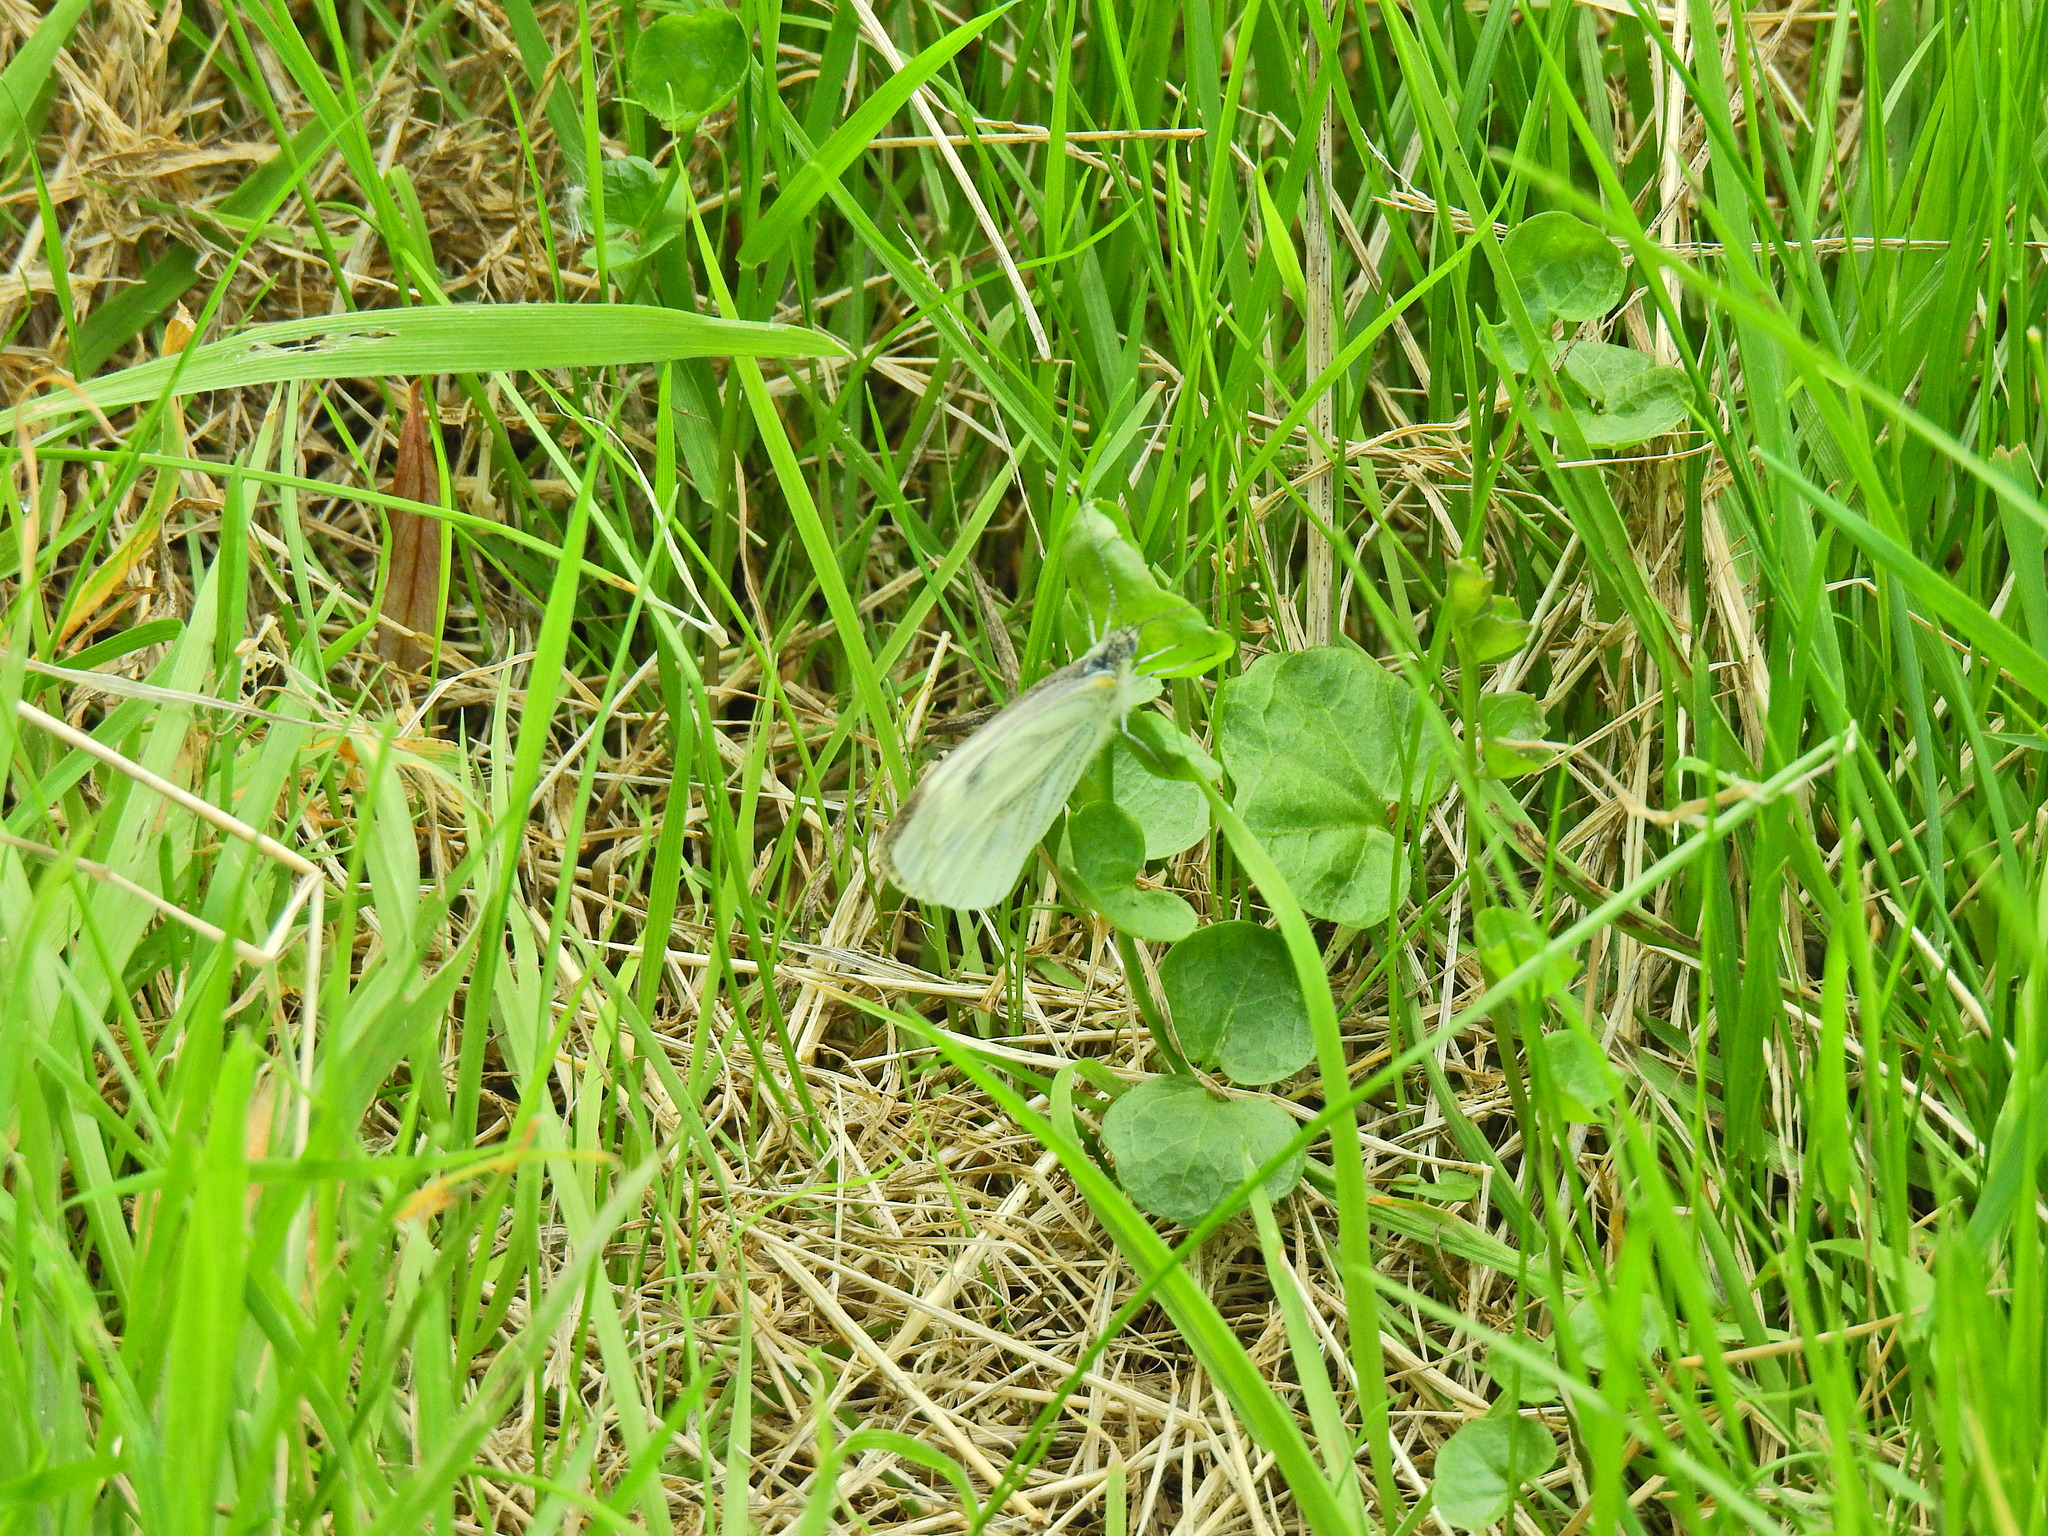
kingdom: Animalia
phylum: Arthropoda
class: Insecta
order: Lepidoptera
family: Pieridae
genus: Pieris
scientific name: Pieris napi
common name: Green-veined white
